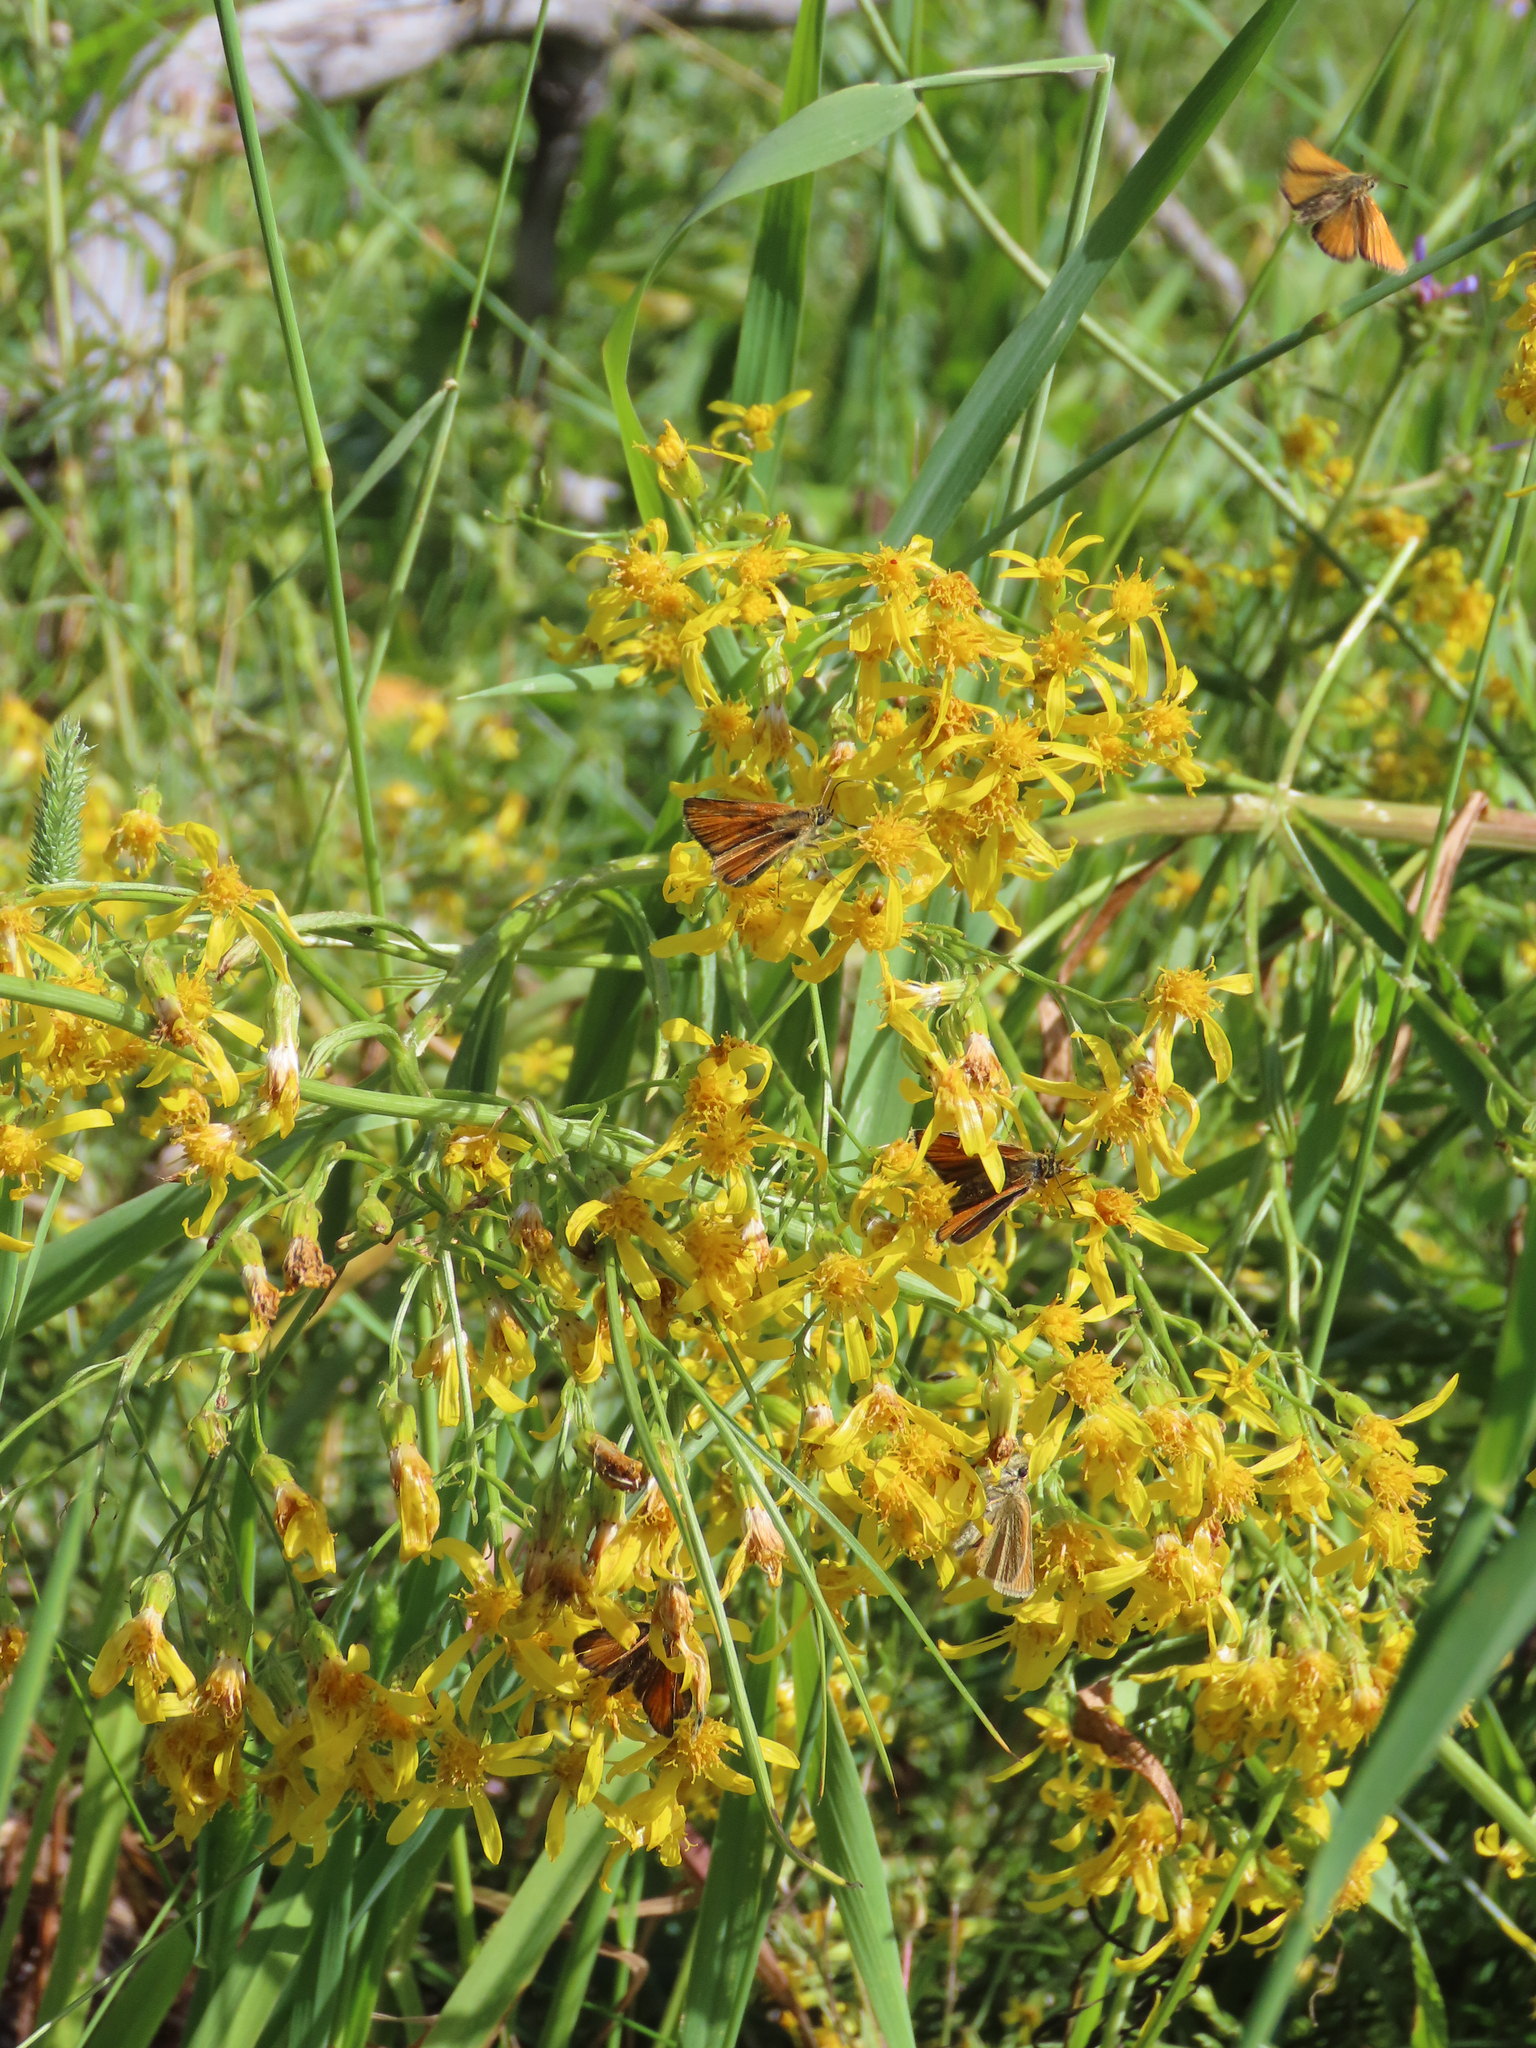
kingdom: Animalia
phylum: Arthropoda
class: Insecta
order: Lepidoptera
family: Hesperiidae
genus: Thymelicus
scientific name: Thymelicus lineola
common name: Essex skipper
